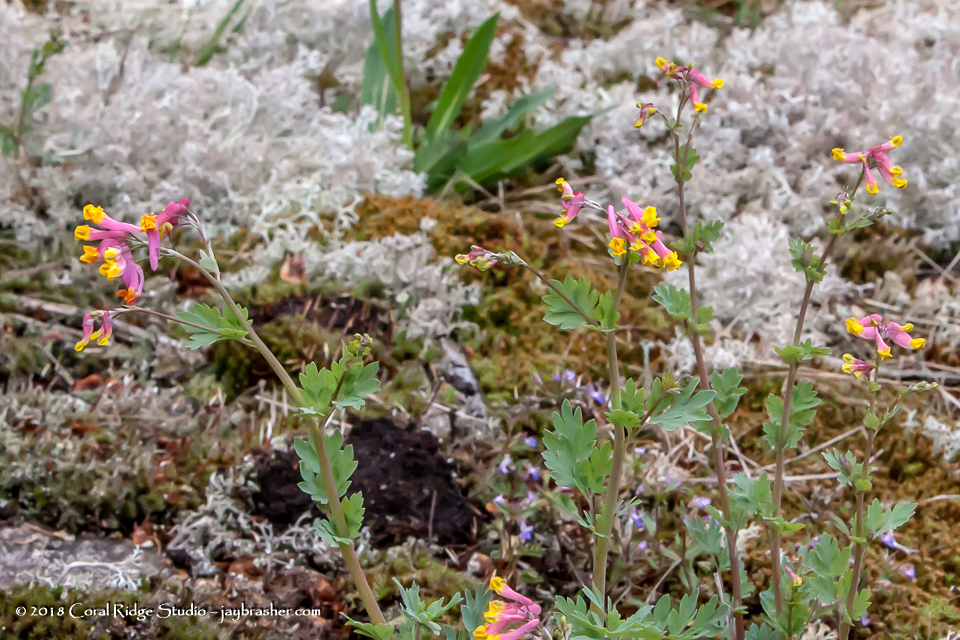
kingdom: Plantae
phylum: Tracheophyta
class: Magnoliopsida
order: Ranunculales
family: Papaveraceae
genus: Capnoides
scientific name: Capnoides sempervirens
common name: Rock harlequin
